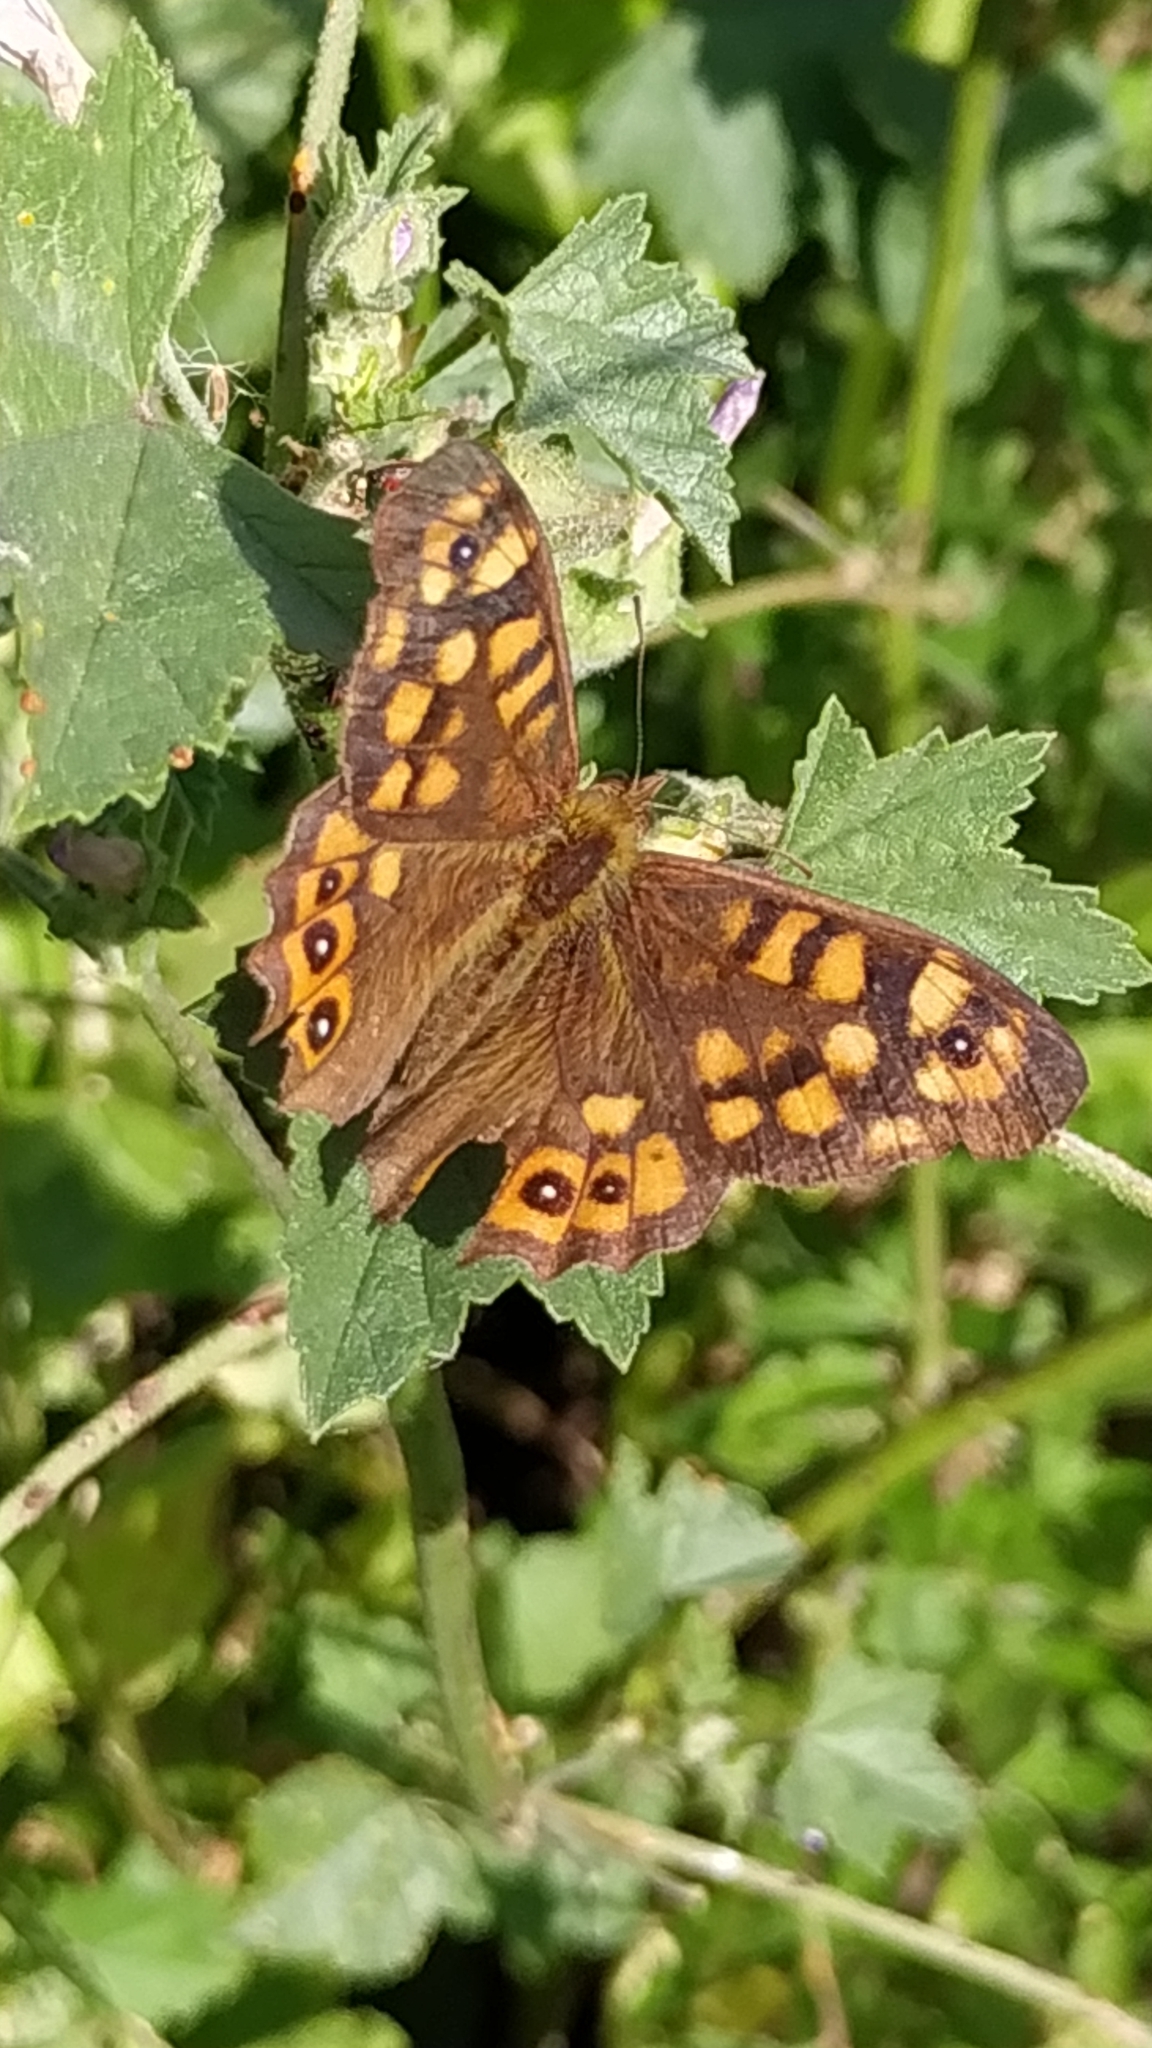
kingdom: Animalia
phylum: Arthropoda
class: Insecta
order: Lepidoptera
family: Nymphalidae
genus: Pararge
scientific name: Pararge aegeria
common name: Speckled wood
